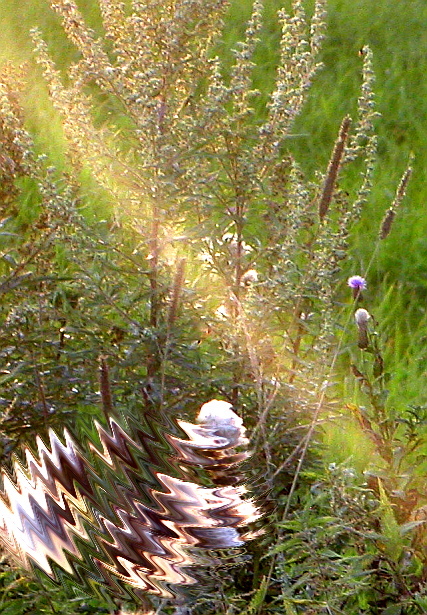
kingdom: Plantae
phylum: Tracheophyta
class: Magnoliopsida
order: Asterales
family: Asteraceae
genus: Artemisia
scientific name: Artemisia vulgaris
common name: Mugwort
